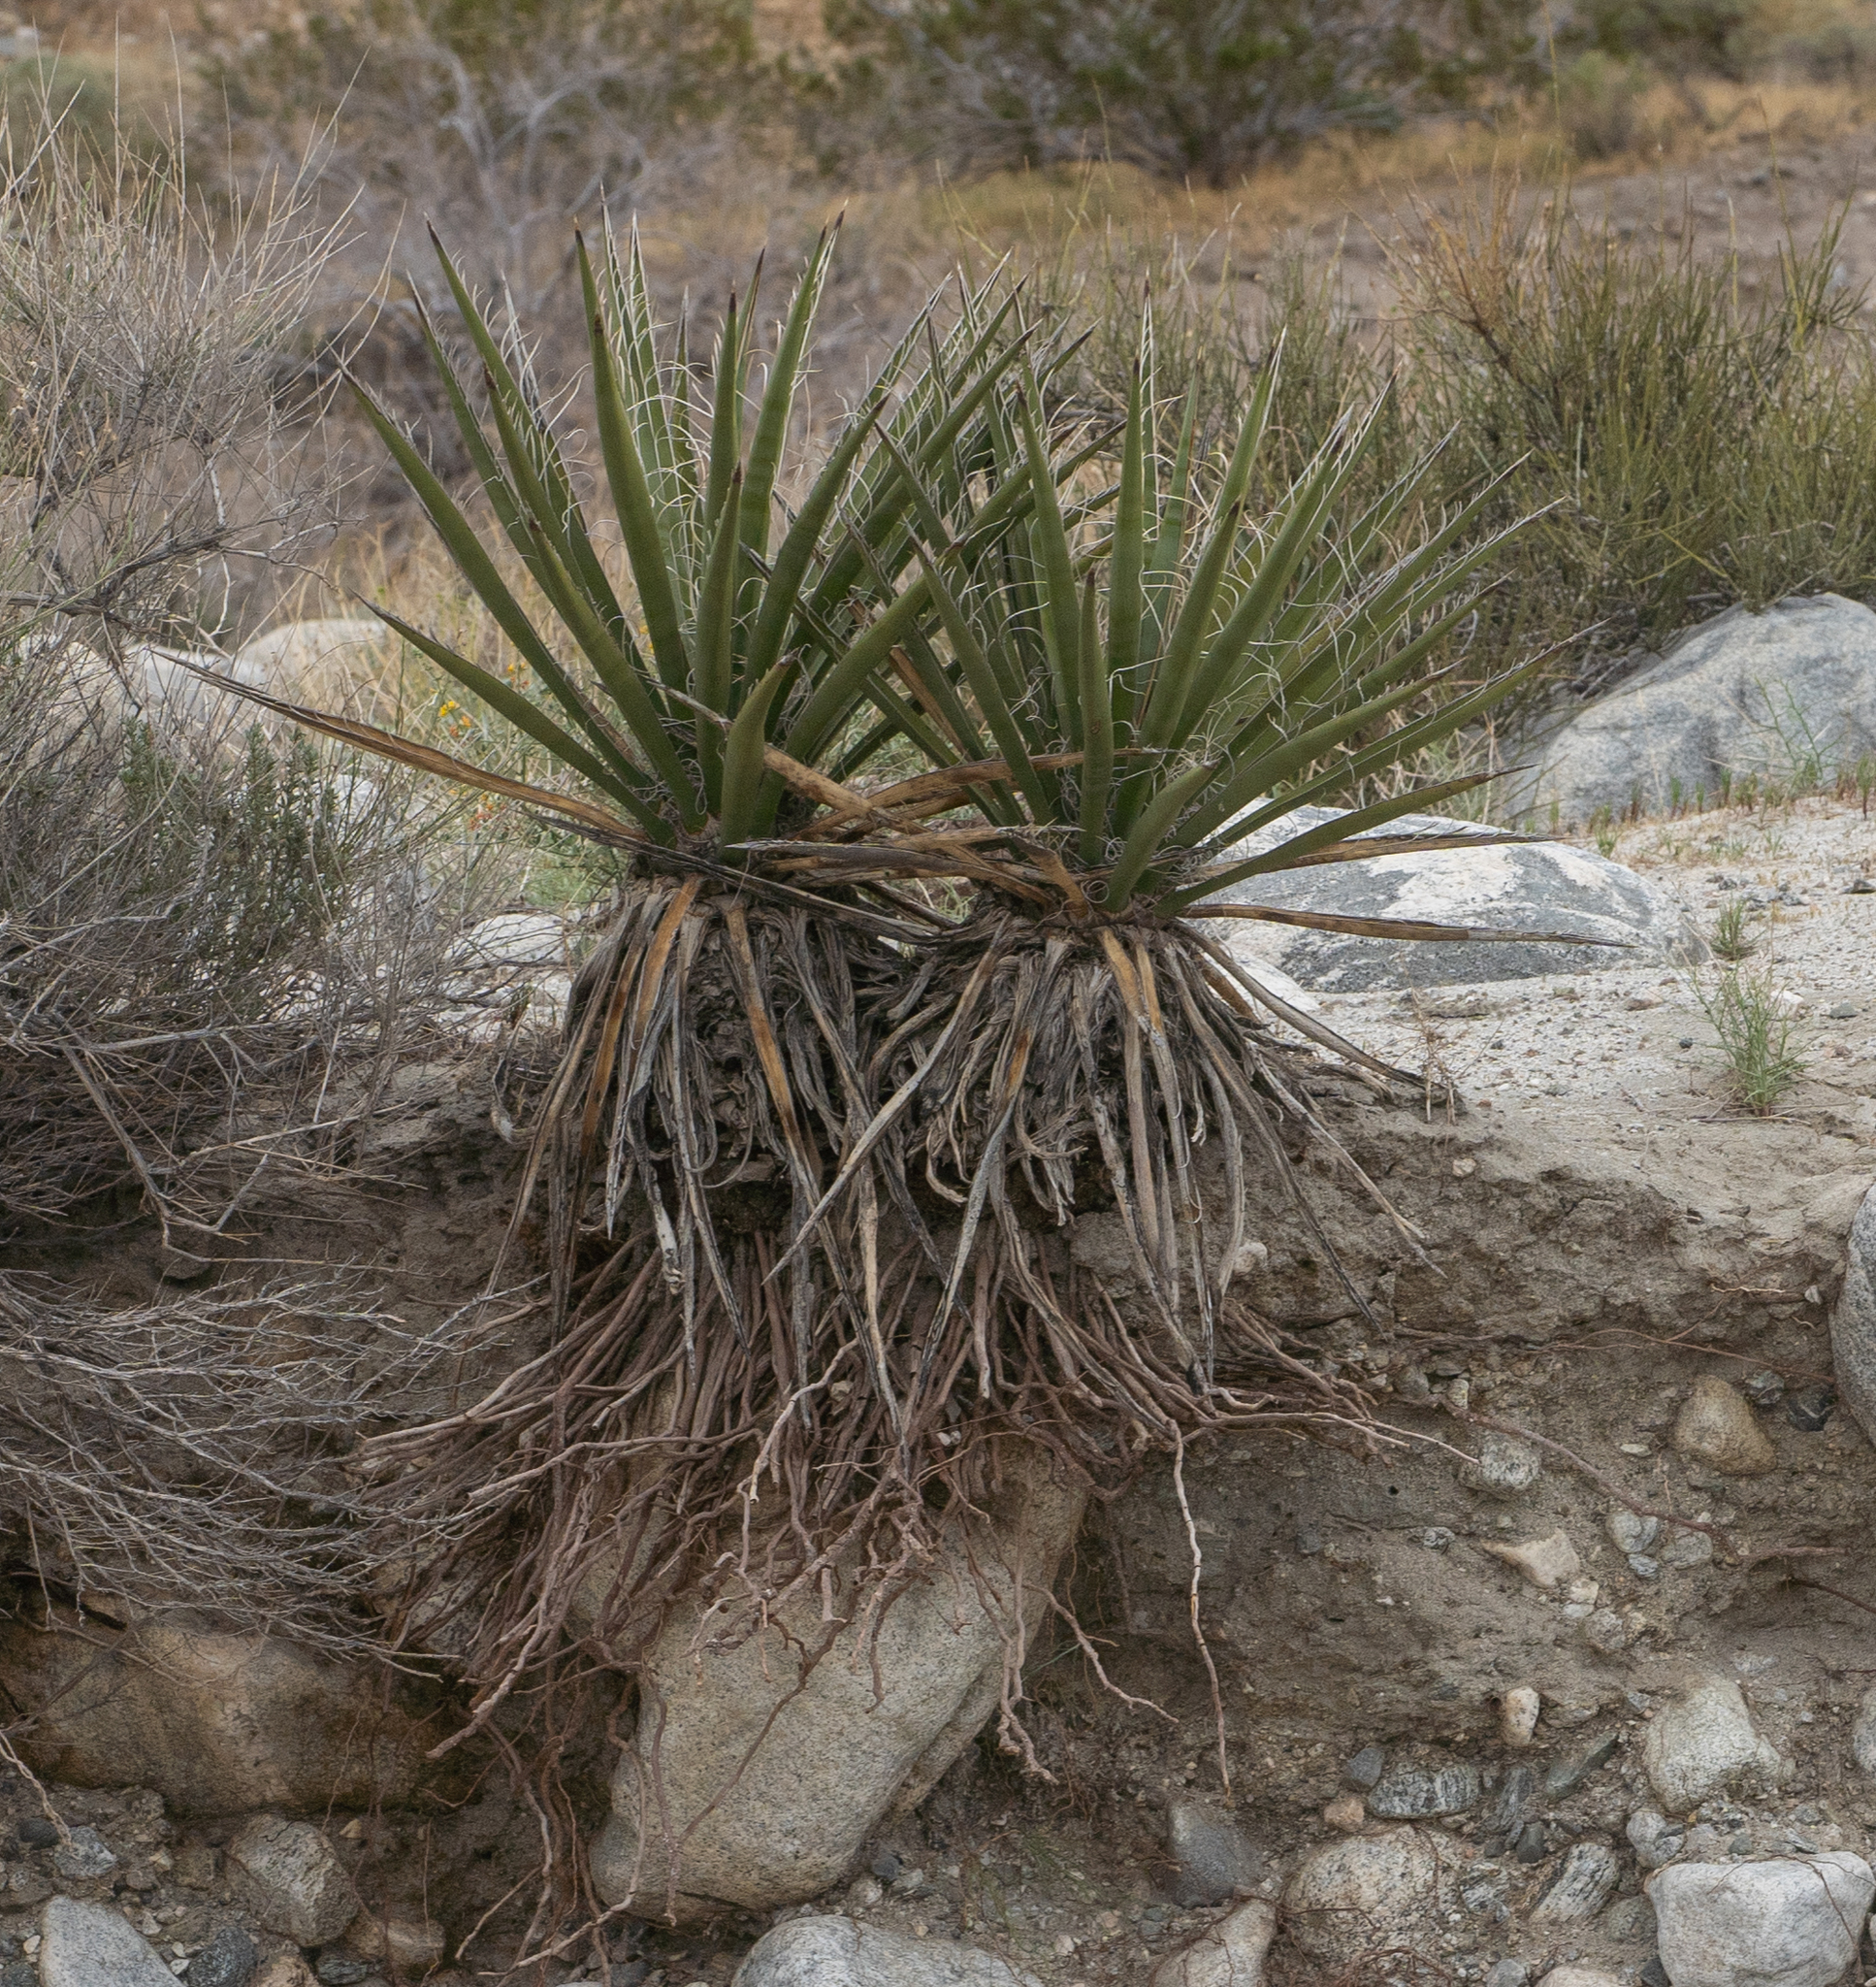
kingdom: Plantae
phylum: Tracheophyta
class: Liliopsida
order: Asparagales
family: Asparagaceae
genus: Yucca
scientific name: Yucca schidigera
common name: Mojave yucca
